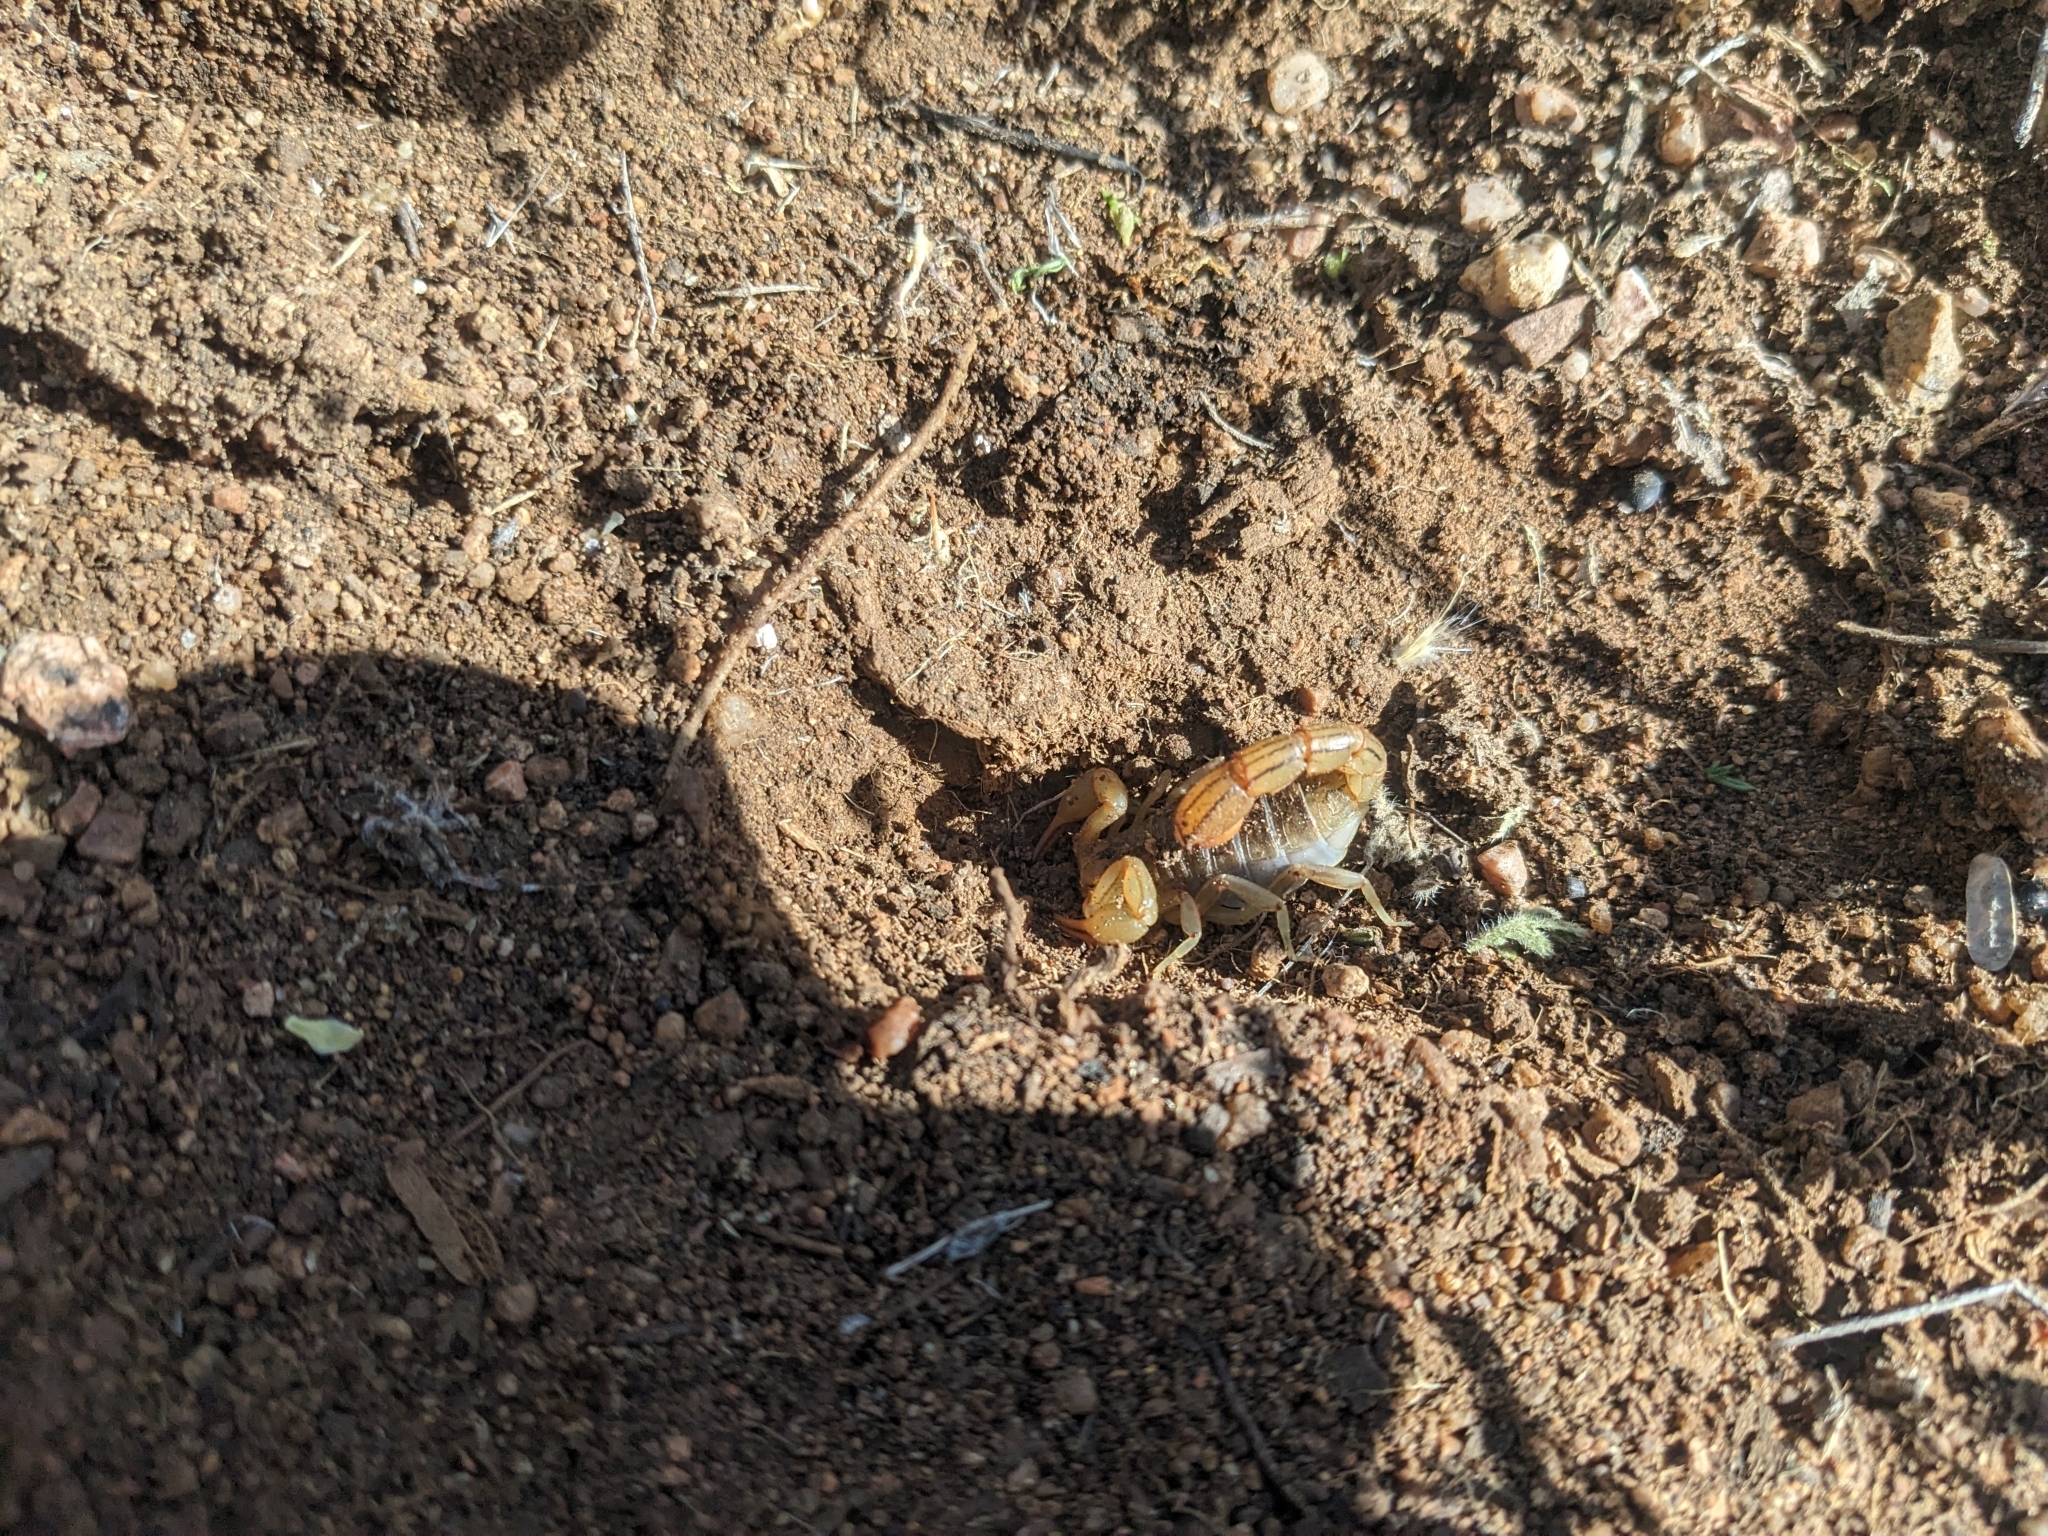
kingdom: Animalia
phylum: Arthropoda
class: Arachnida
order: Scorpiones
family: Vaejovidae
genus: Paravaejovis
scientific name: Paravaejovis spinigerus
